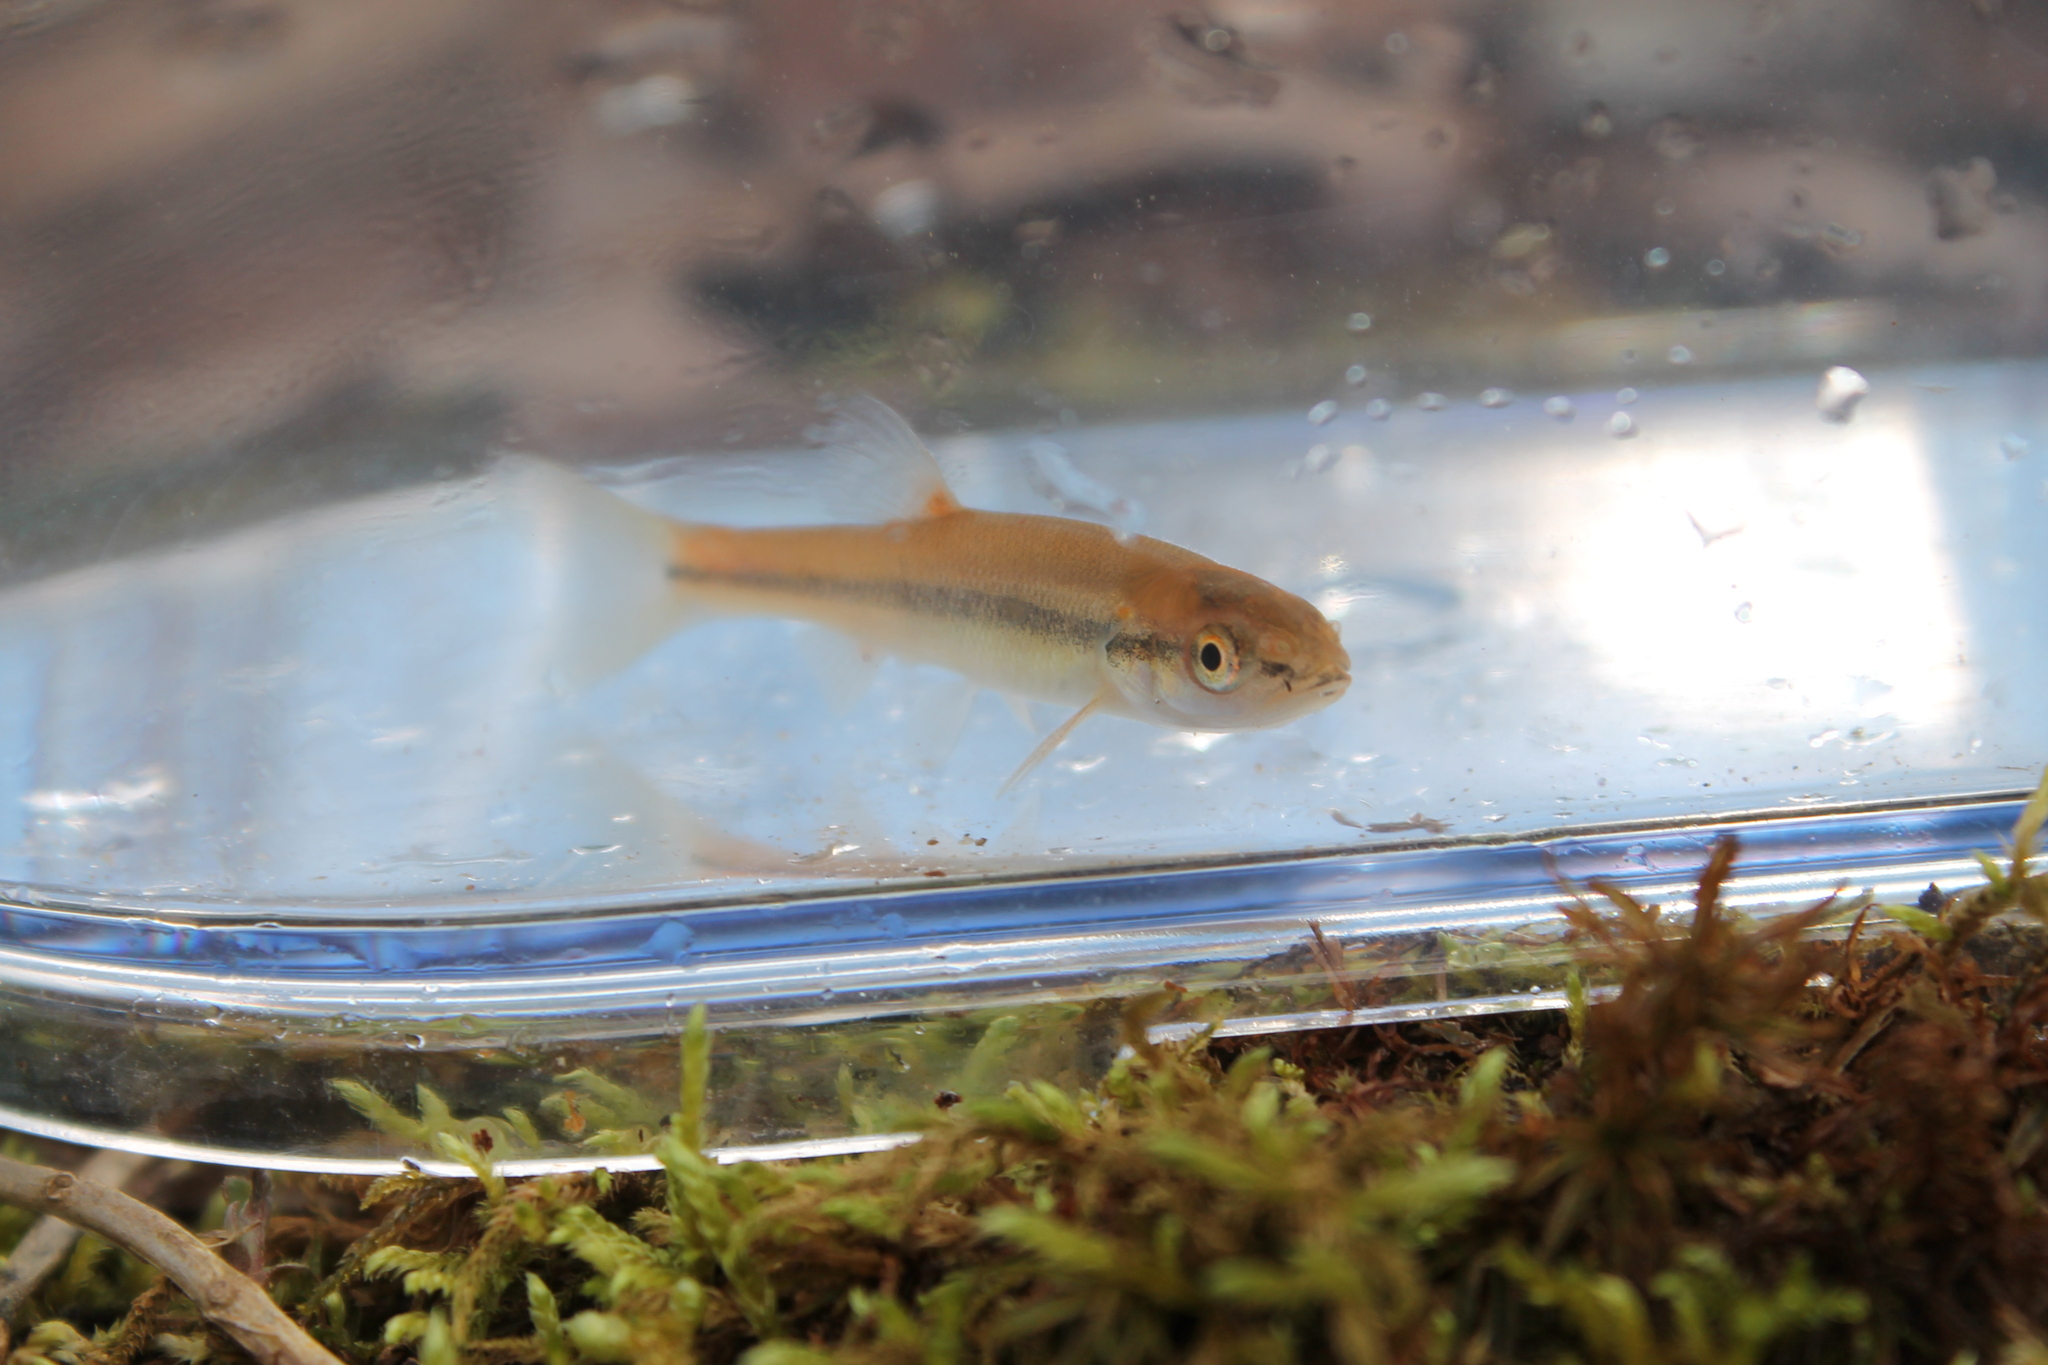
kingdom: Animalia
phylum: Chordata
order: Cypriniformes
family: Cyprinidae
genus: Semotilus
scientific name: Semotilus atromaculatus
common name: Creek chub
